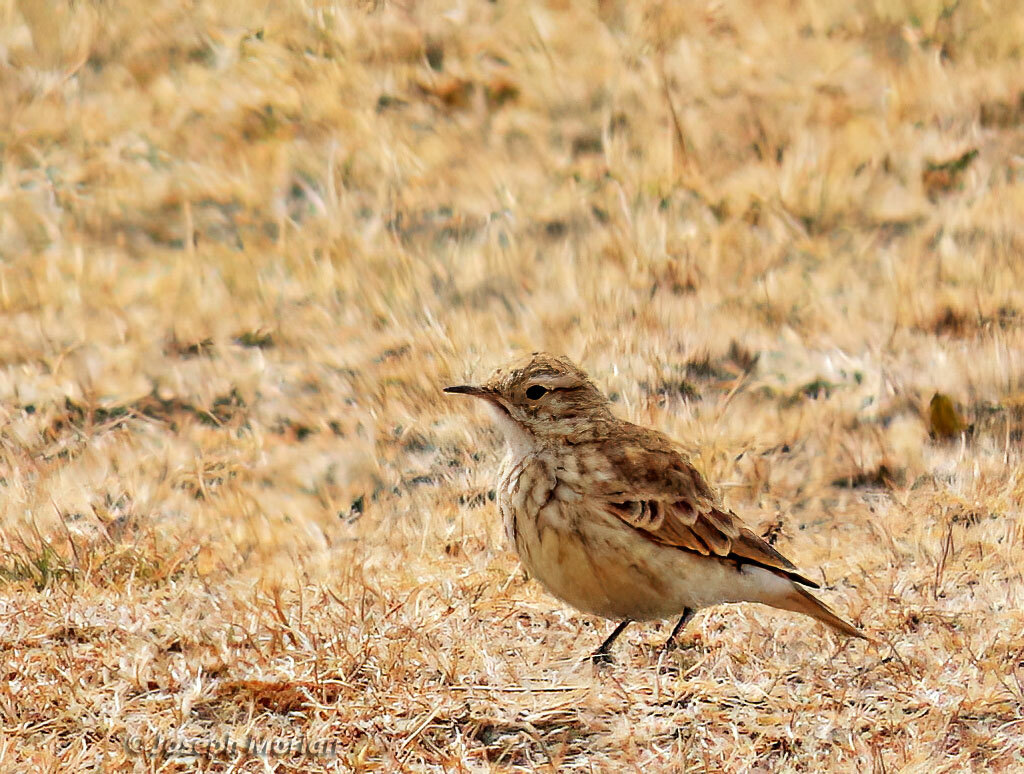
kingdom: Animalia
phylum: Chordata
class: Aves
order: Passeriformes
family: Furnariidae
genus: Geositta
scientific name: Geositta cunicularia
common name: Common miner
